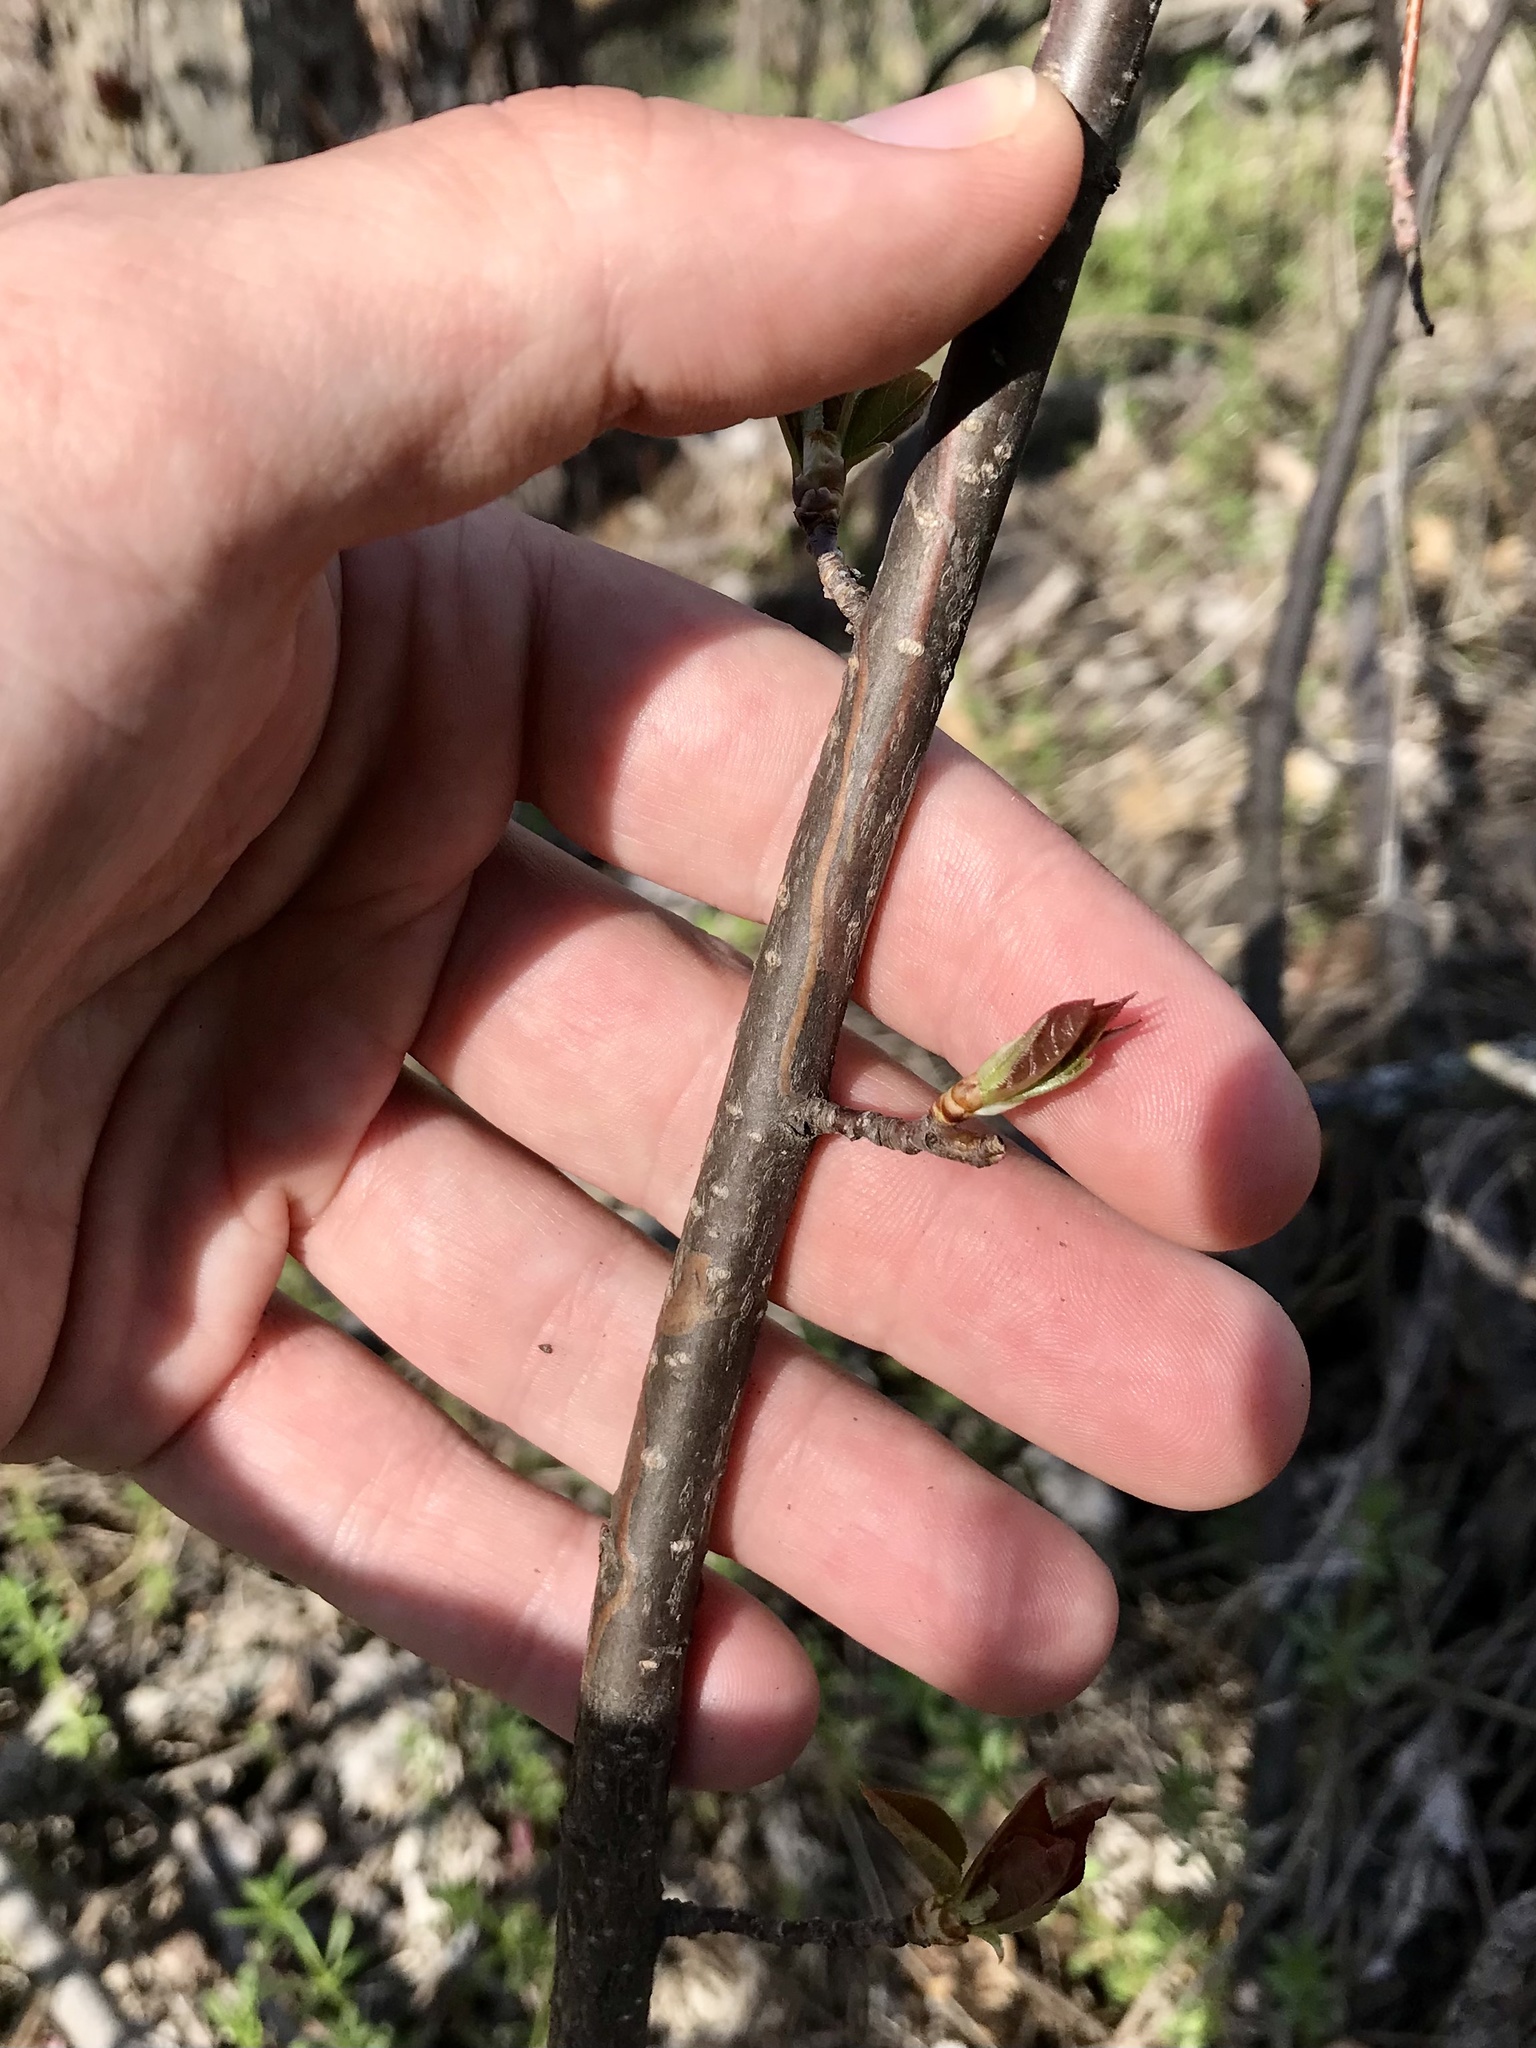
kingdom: Animalia
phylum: Arthropoda
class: Insecta
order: Lepidoptera
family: Gracillariidae
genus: Marmara
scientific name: Marmara serotinella
